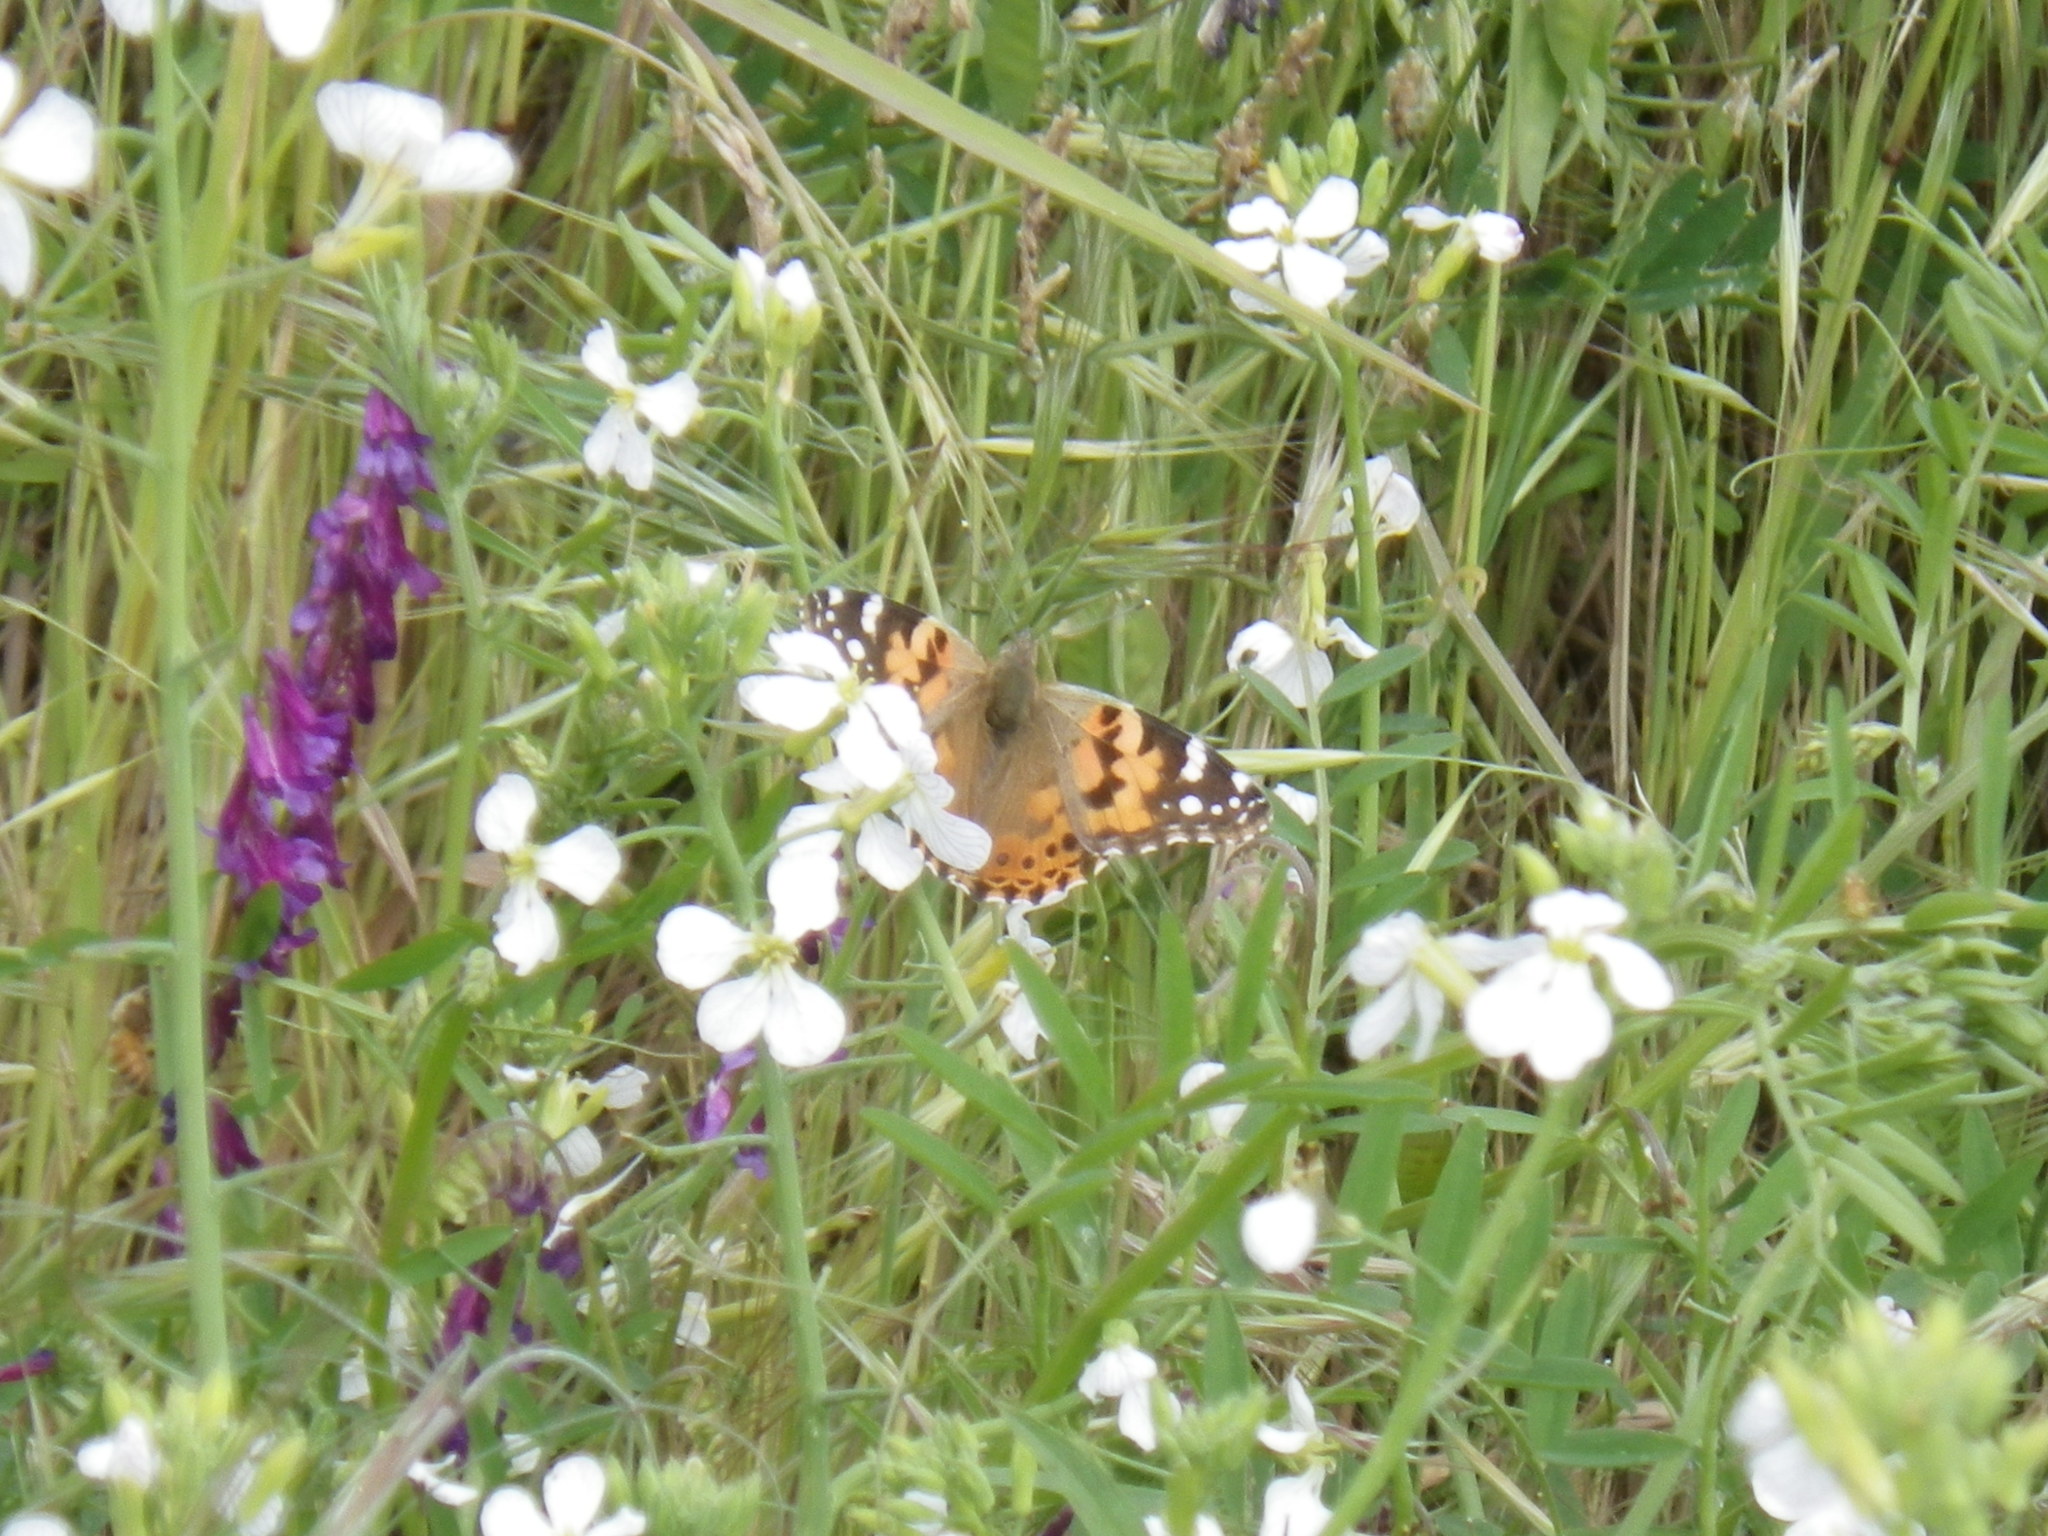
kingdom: Animalia
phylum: Arthropoda
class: Insecta
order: Lepidoptera
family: Nymphalidae
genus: Vanessa
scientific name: Vanessa cardui
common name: Painted lady
